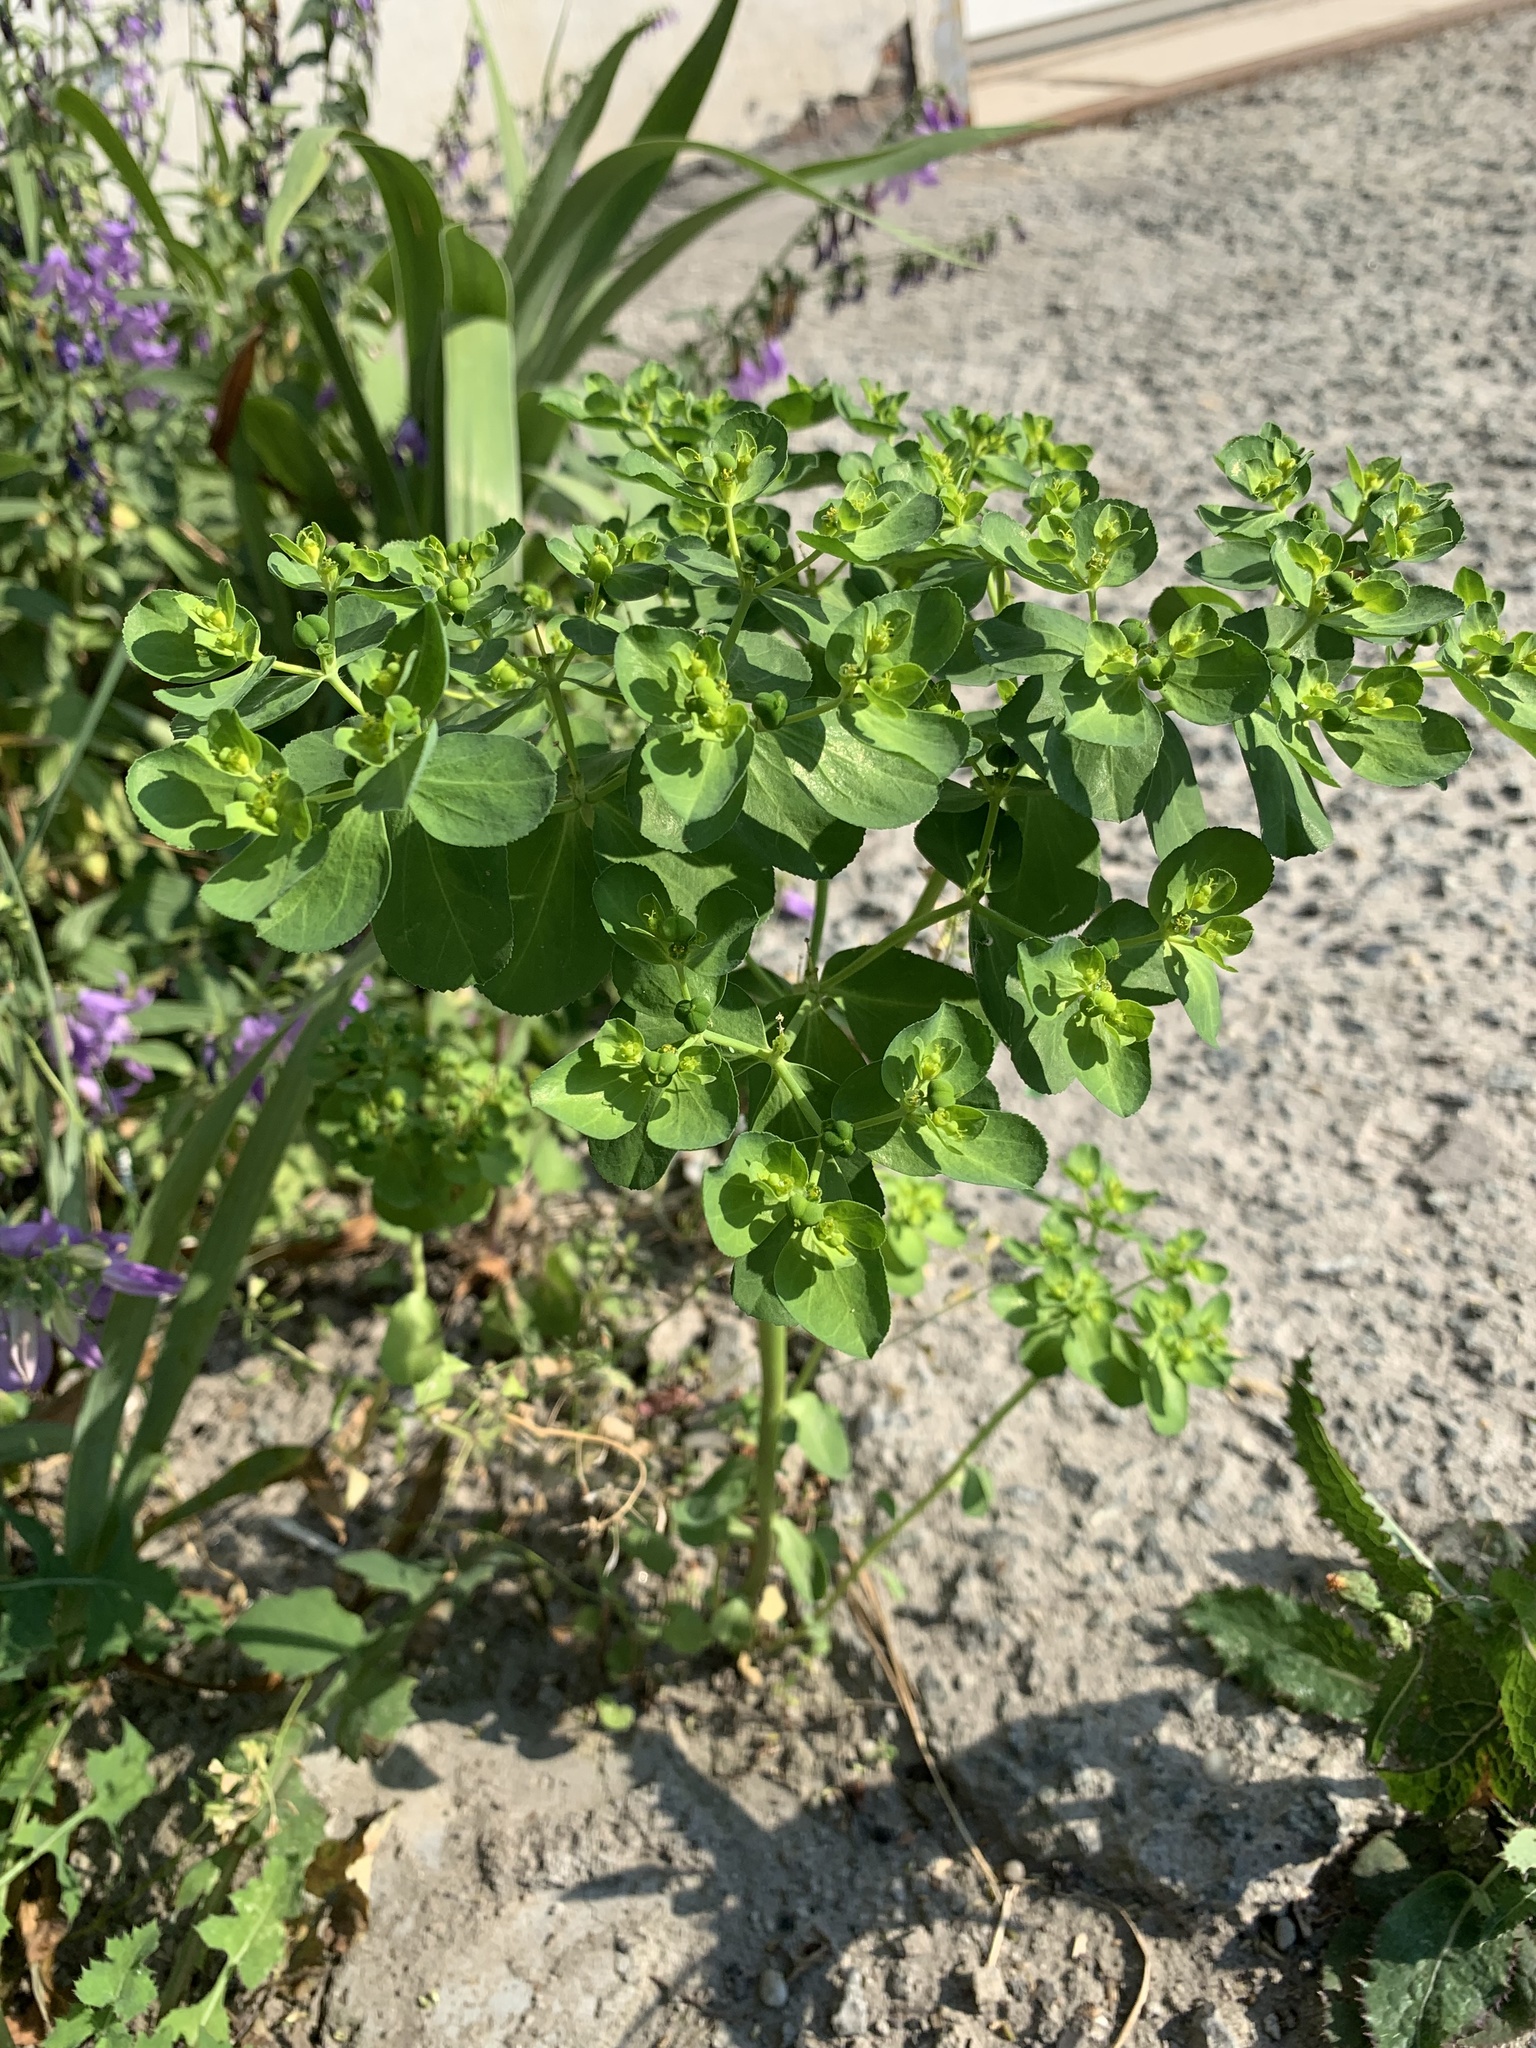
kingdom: Plantae
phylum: Tracheophyta
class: Magnoliopsida
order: Malpighiales
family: Euphorbiaceae
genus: Euphorbia
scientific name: Euphorbia helioscopia
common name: Sun spurge
